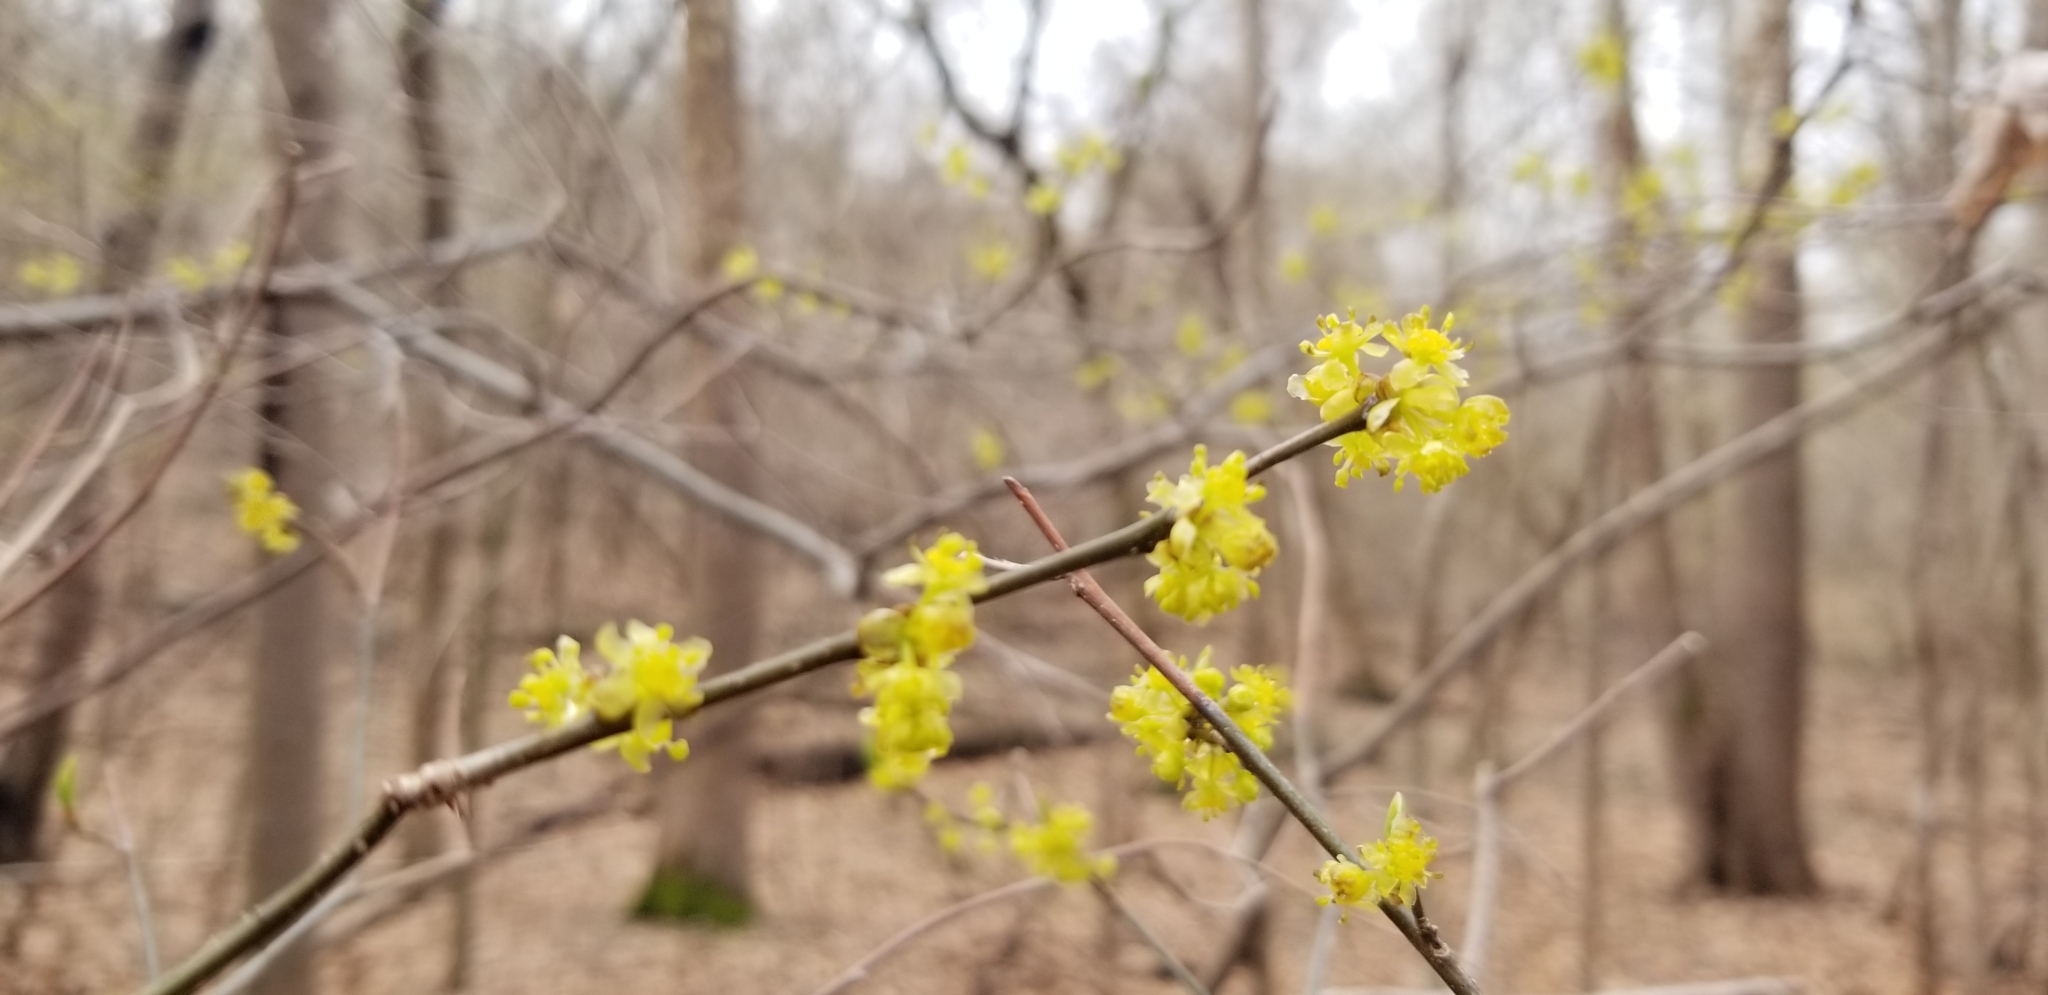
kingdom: Plantae
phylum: Tracheophyta
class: Magnoliopsida
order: Laurales
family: Lauraceae
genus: Lindera
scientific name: Lindera benzoin
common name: Spicebush
